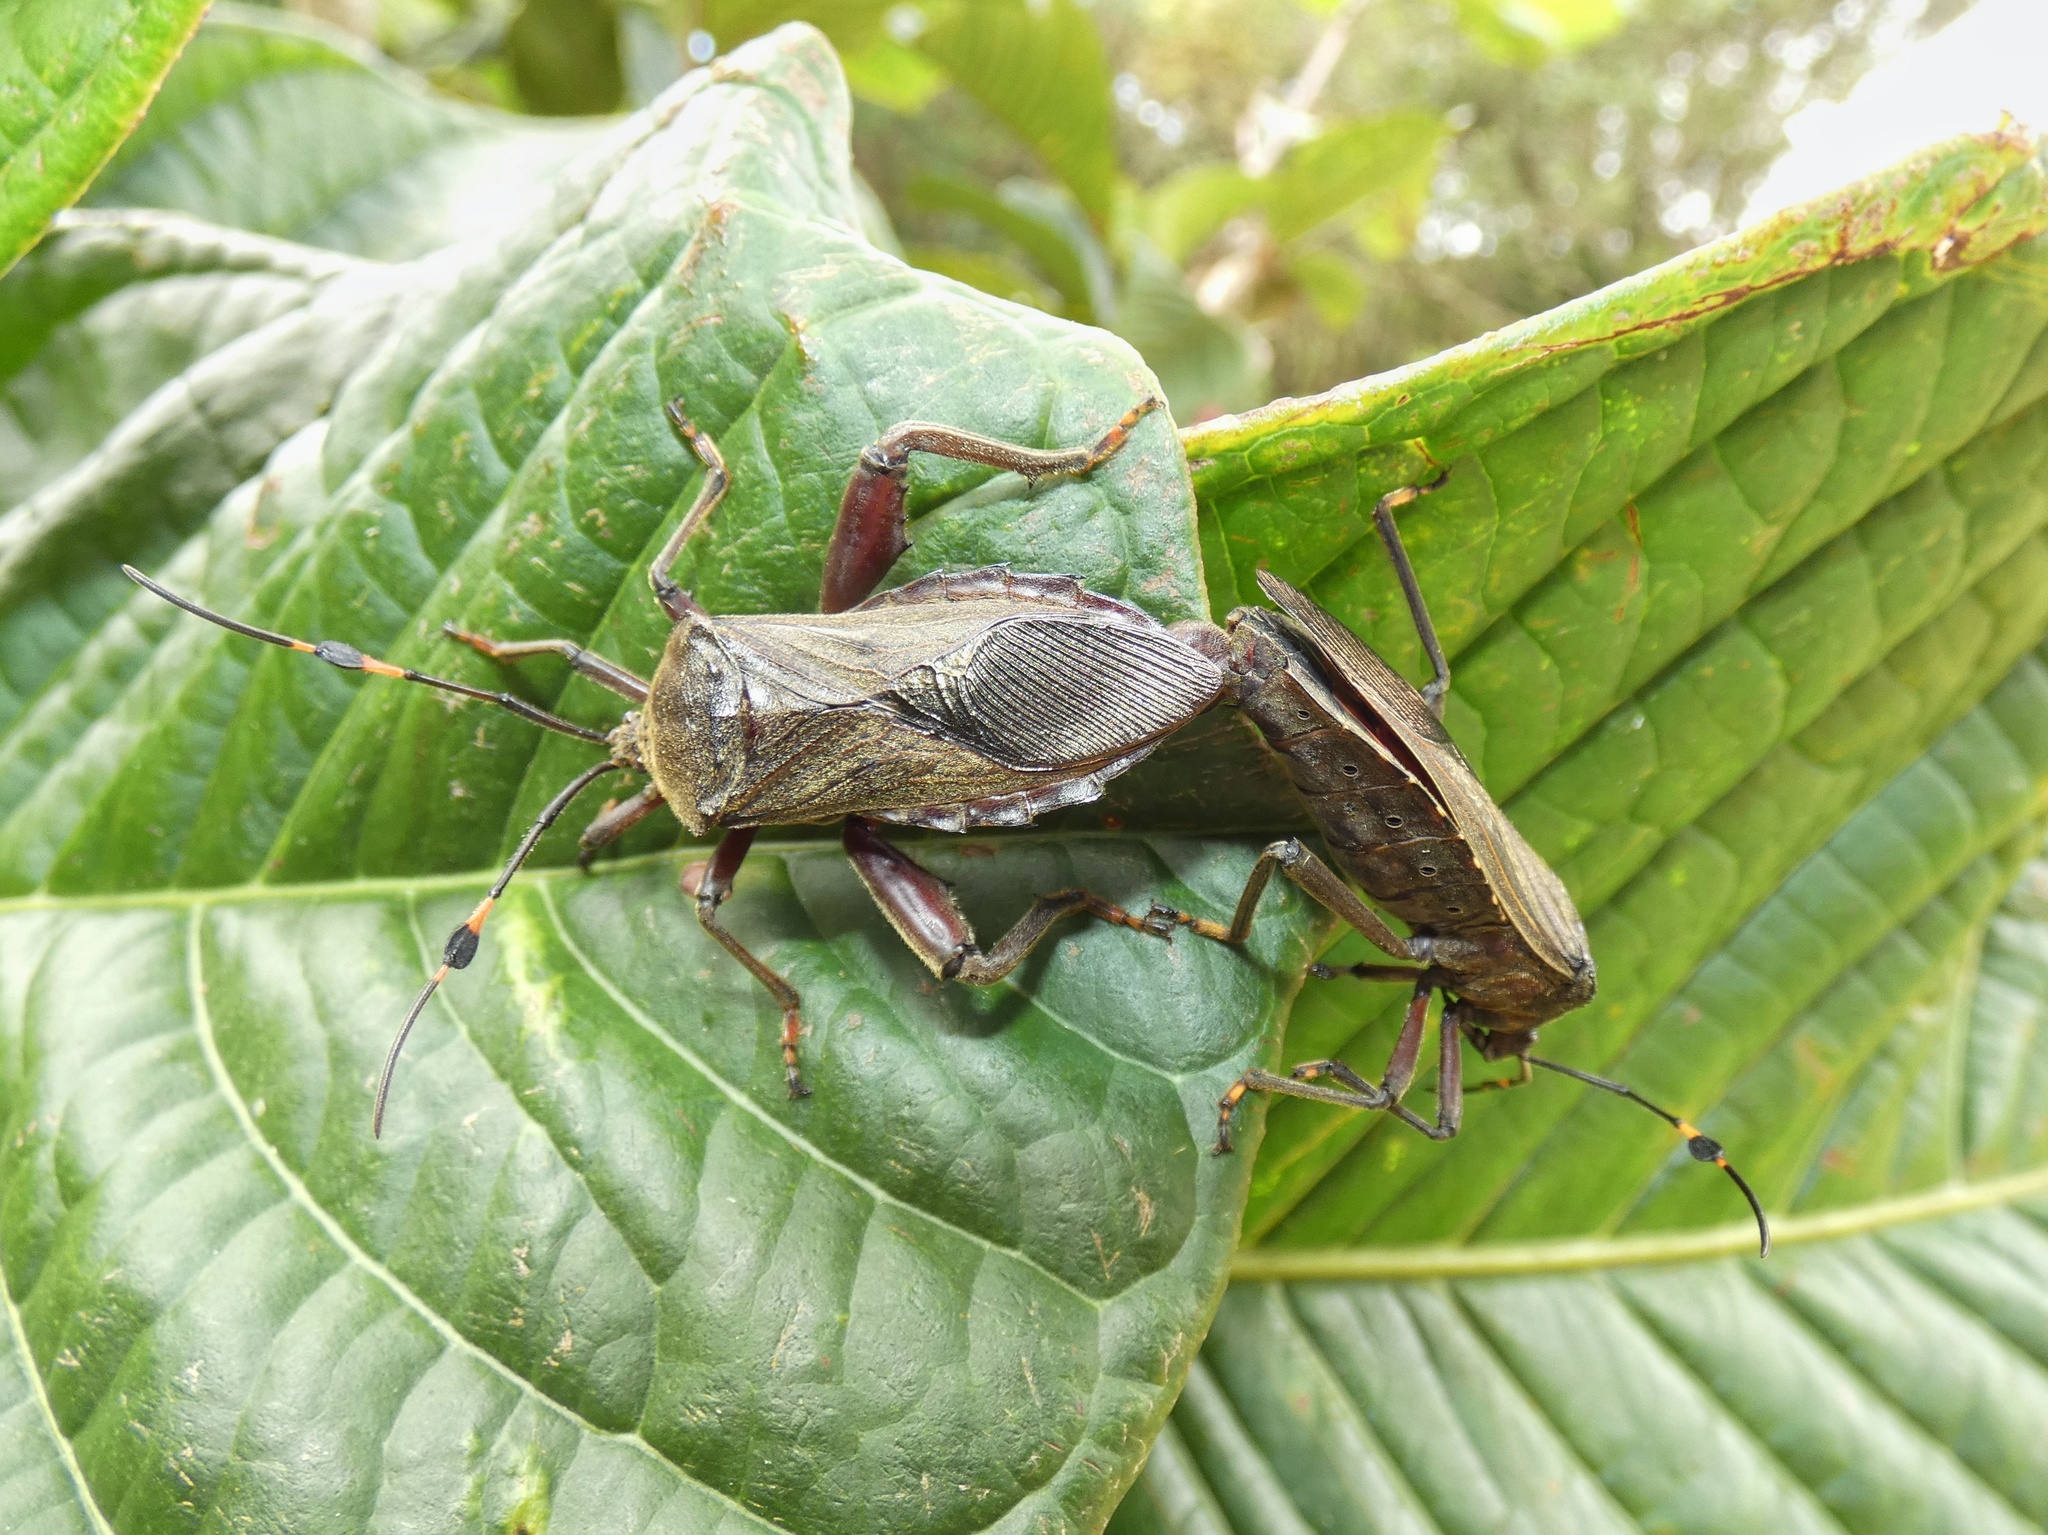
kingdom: Animalia
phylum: Arthropoda
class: Insecta
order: Hemiptera
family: Coreidae
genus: Pachylis
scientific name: Pachylis nervosus
